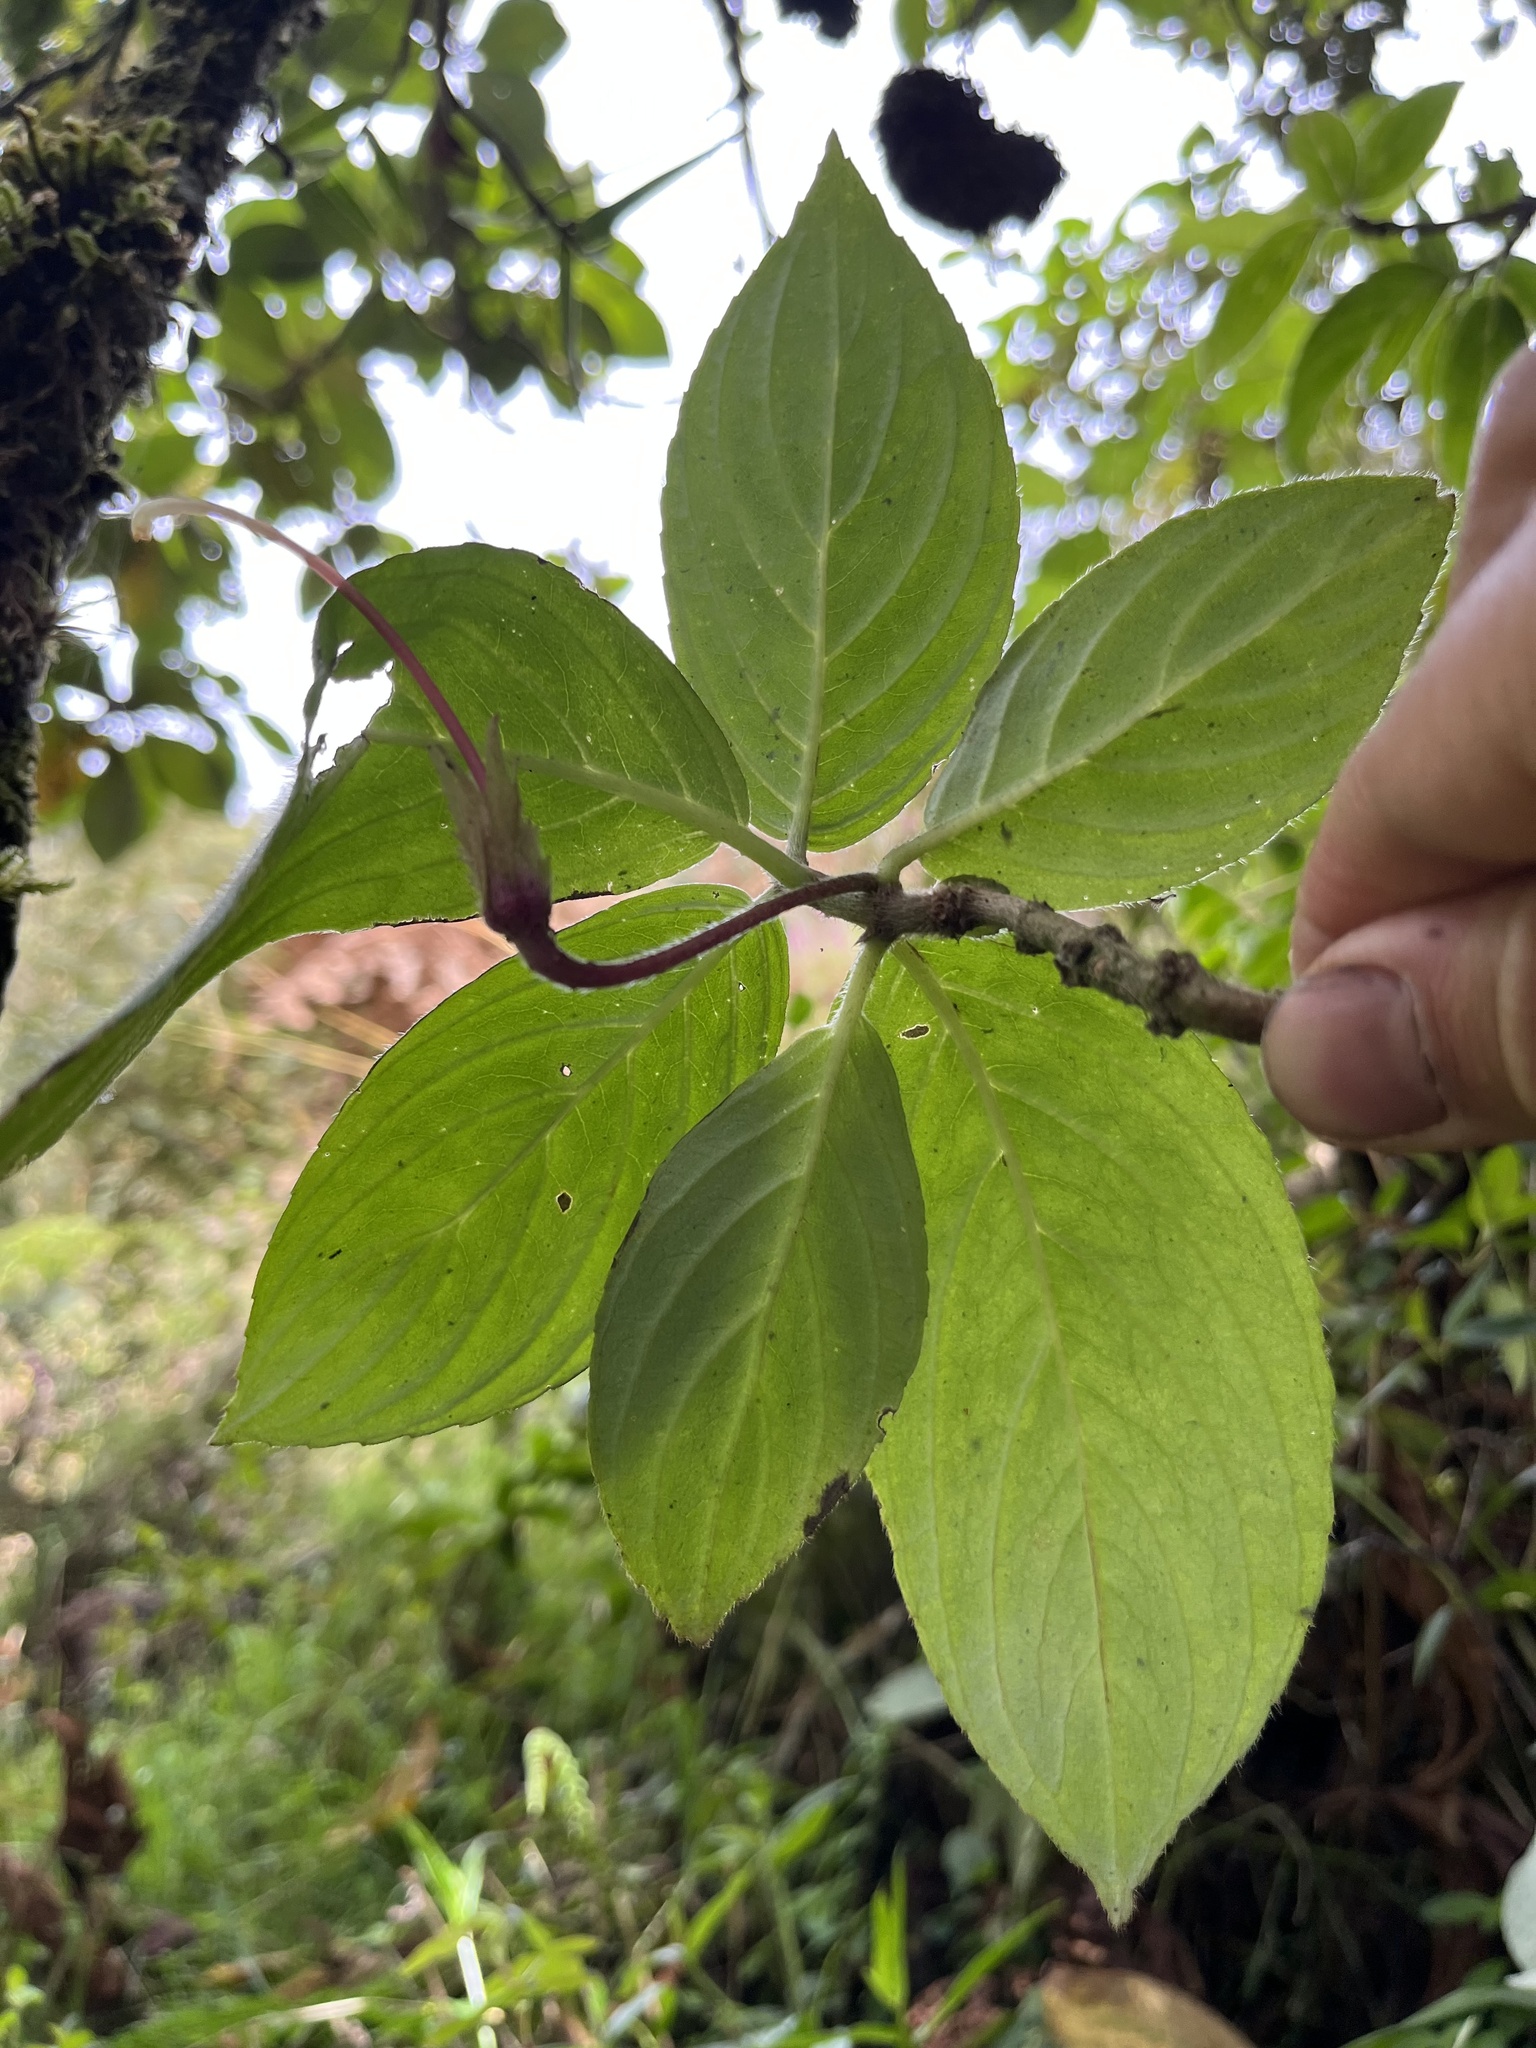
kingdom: Plantae
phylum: Tracheophyta
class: Magnoliopsida
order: Lamiales
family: Gesneriaceae
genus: Columnea
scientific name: Columnea strigosa
